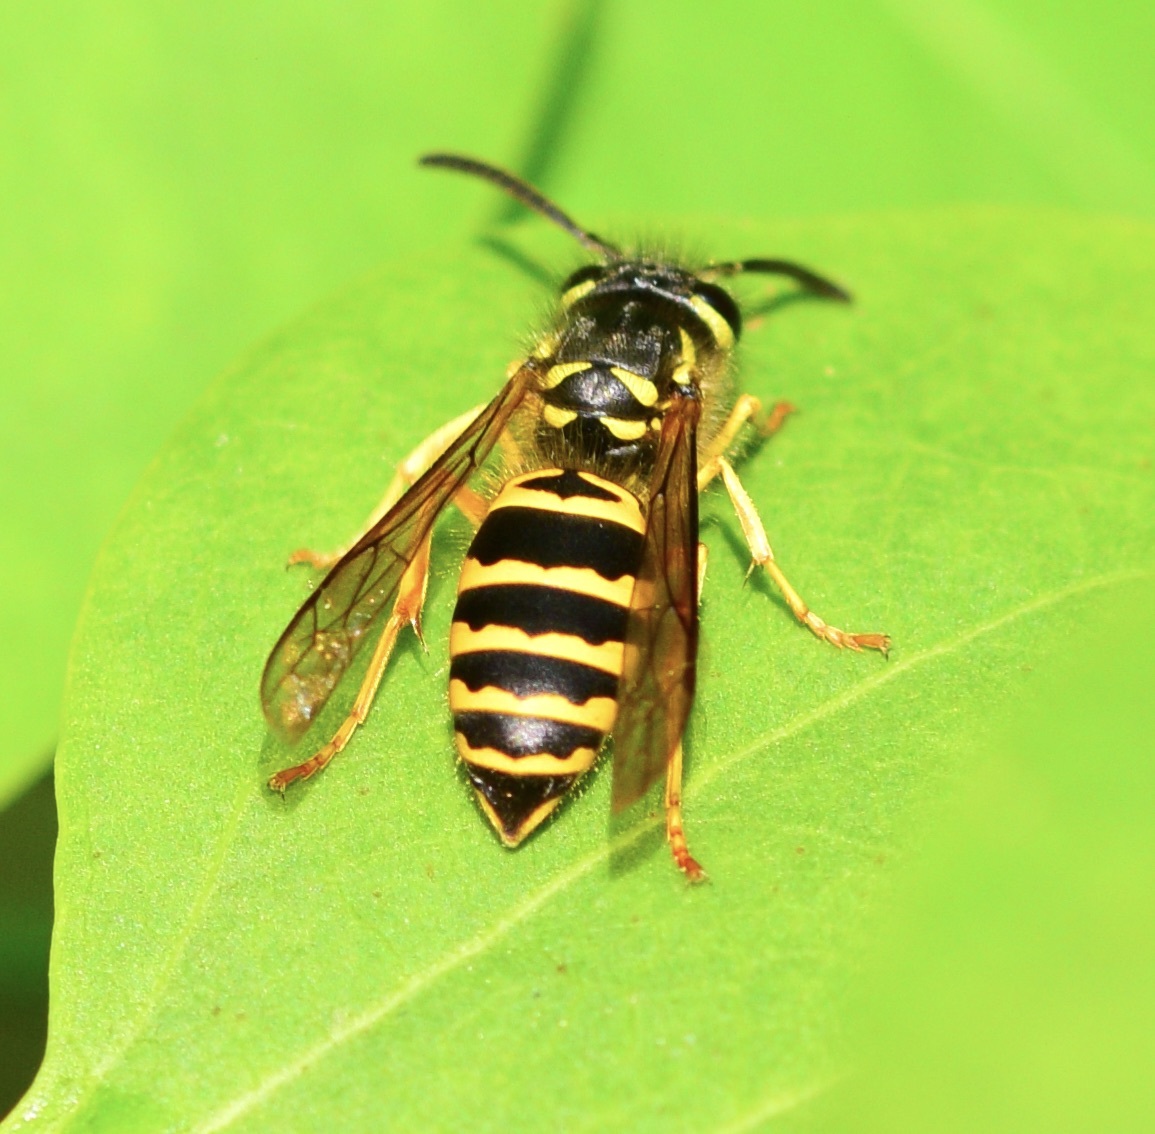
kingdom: Animalia
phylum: Arthropoda
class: Insecta
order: Hymenoptera
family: Vespidae
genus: Vespula
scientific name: Vespula maculifrons
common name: Eastern yellowjacket
